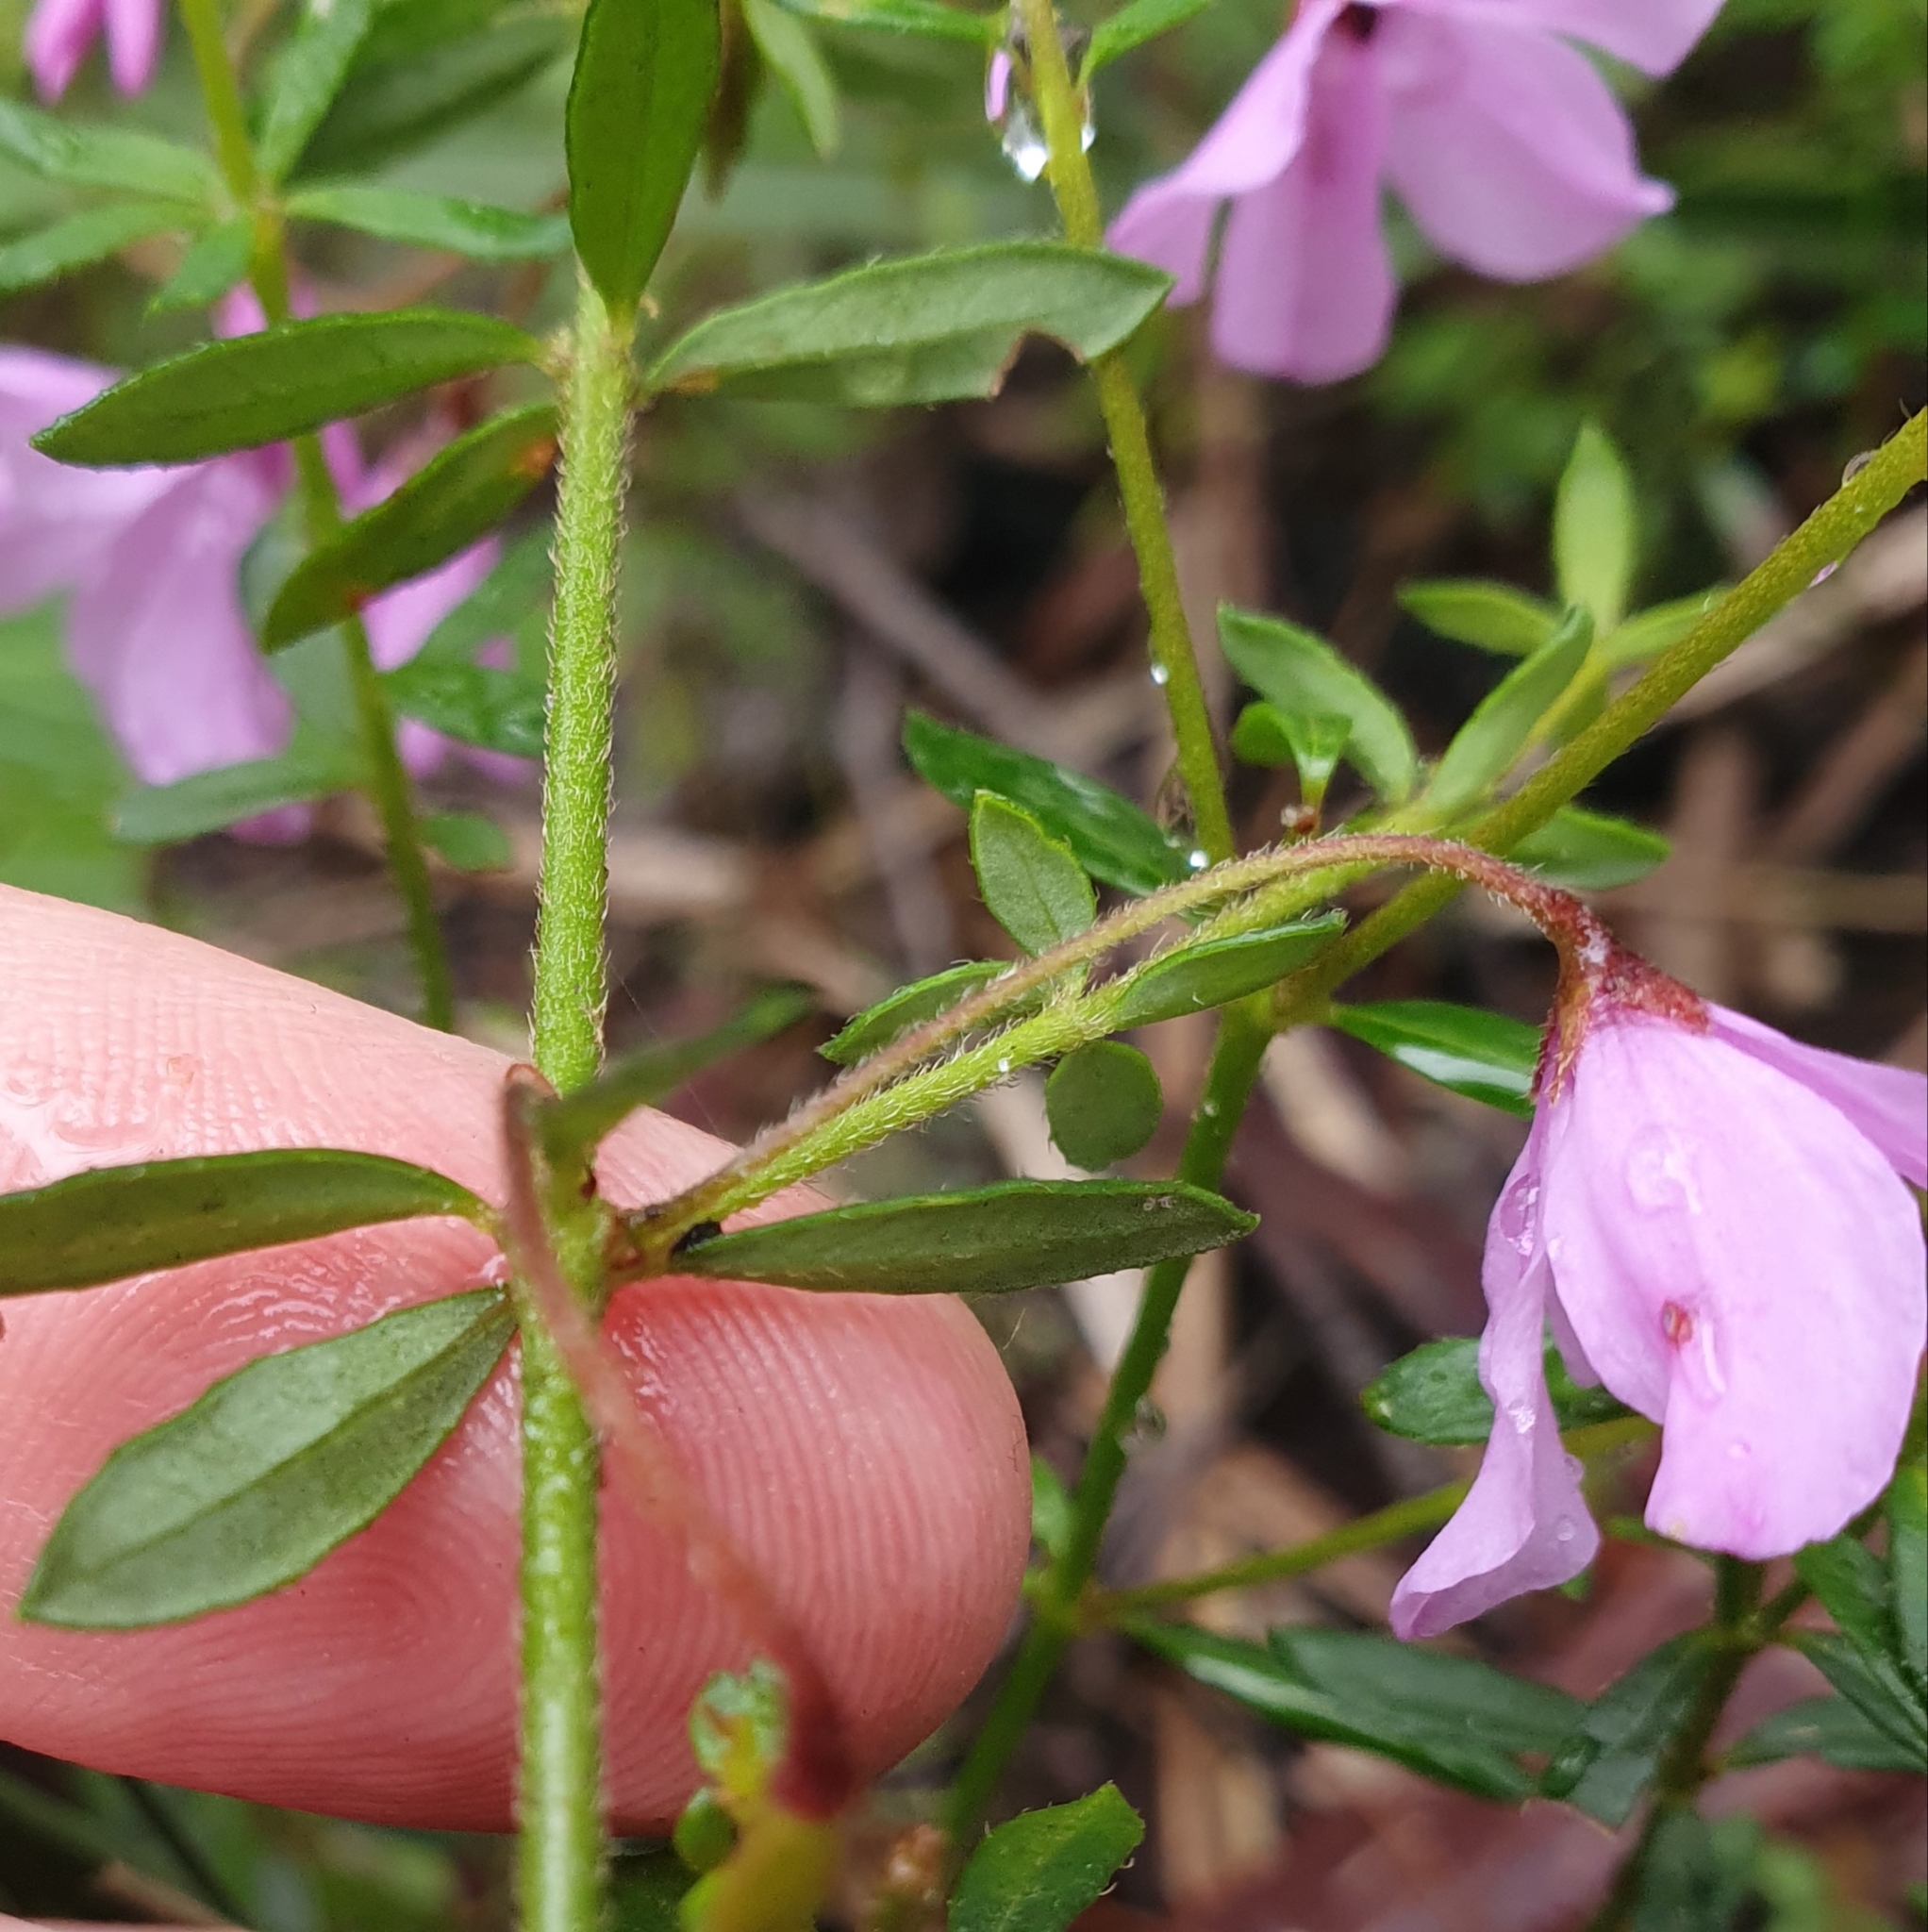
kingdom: Plantae
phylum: Tracheophyta
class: Magnoliopsida
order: Oxalidales
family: Elaeocarpaceae
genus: Tetratheca
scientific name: Tetratheca thymifolia
